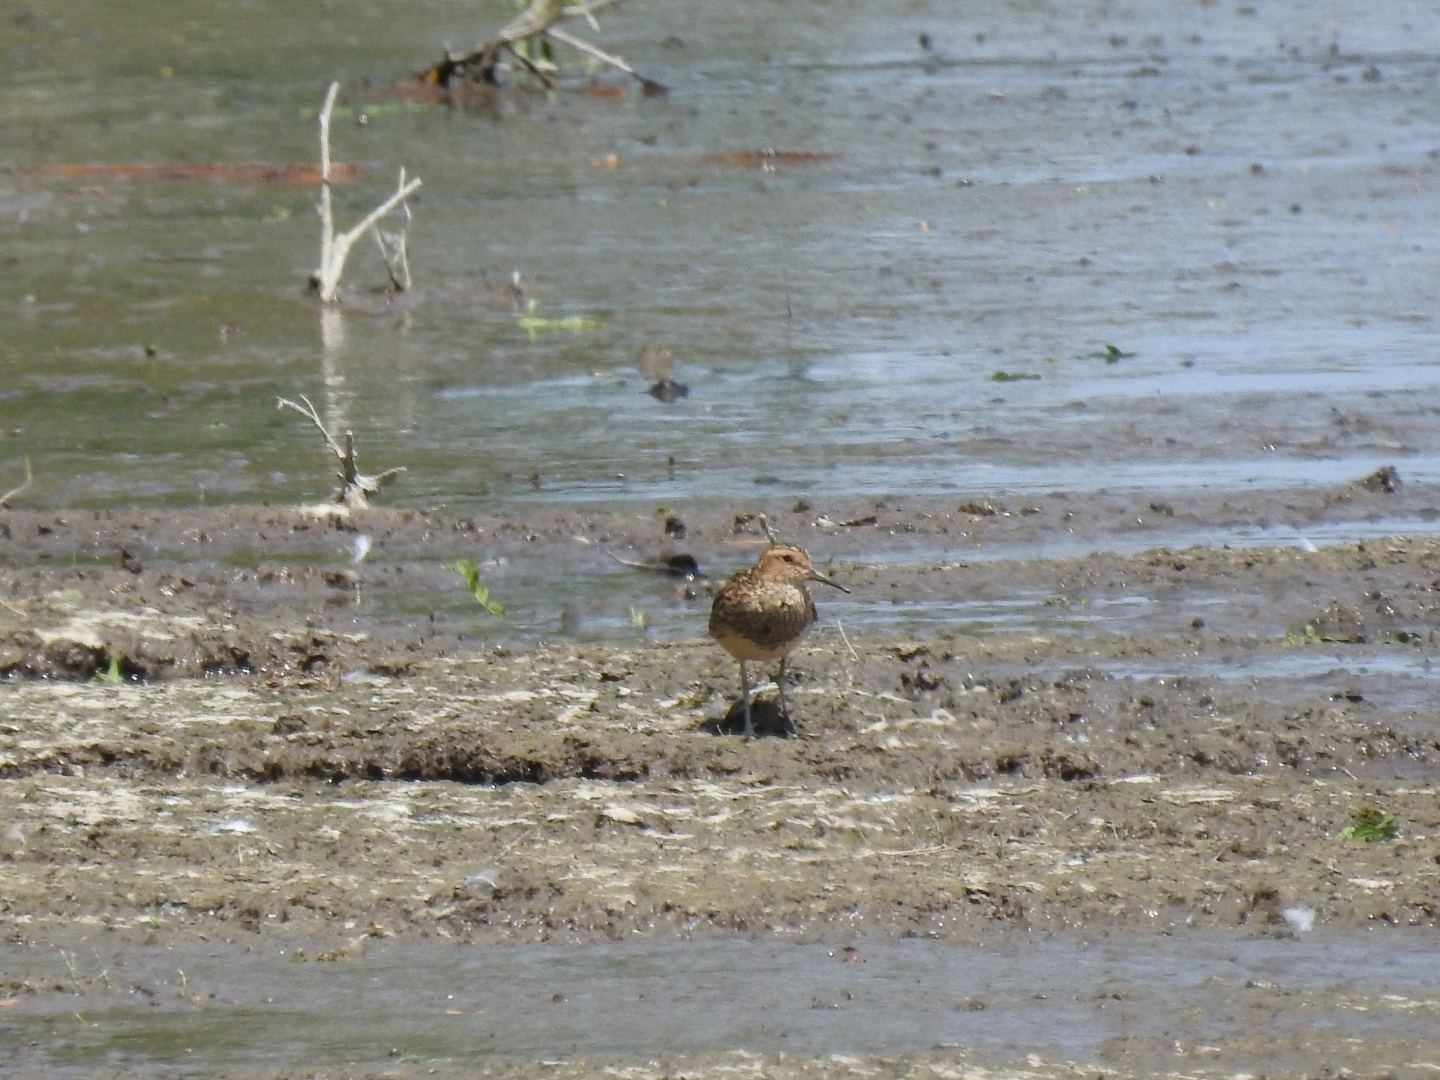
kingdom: Animalia
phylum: Chordata
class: Aves
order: Charadriiformes
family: Scolopacidae
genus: Calidris
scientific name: Calidris melanotos
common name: Pectoral sandpiper
